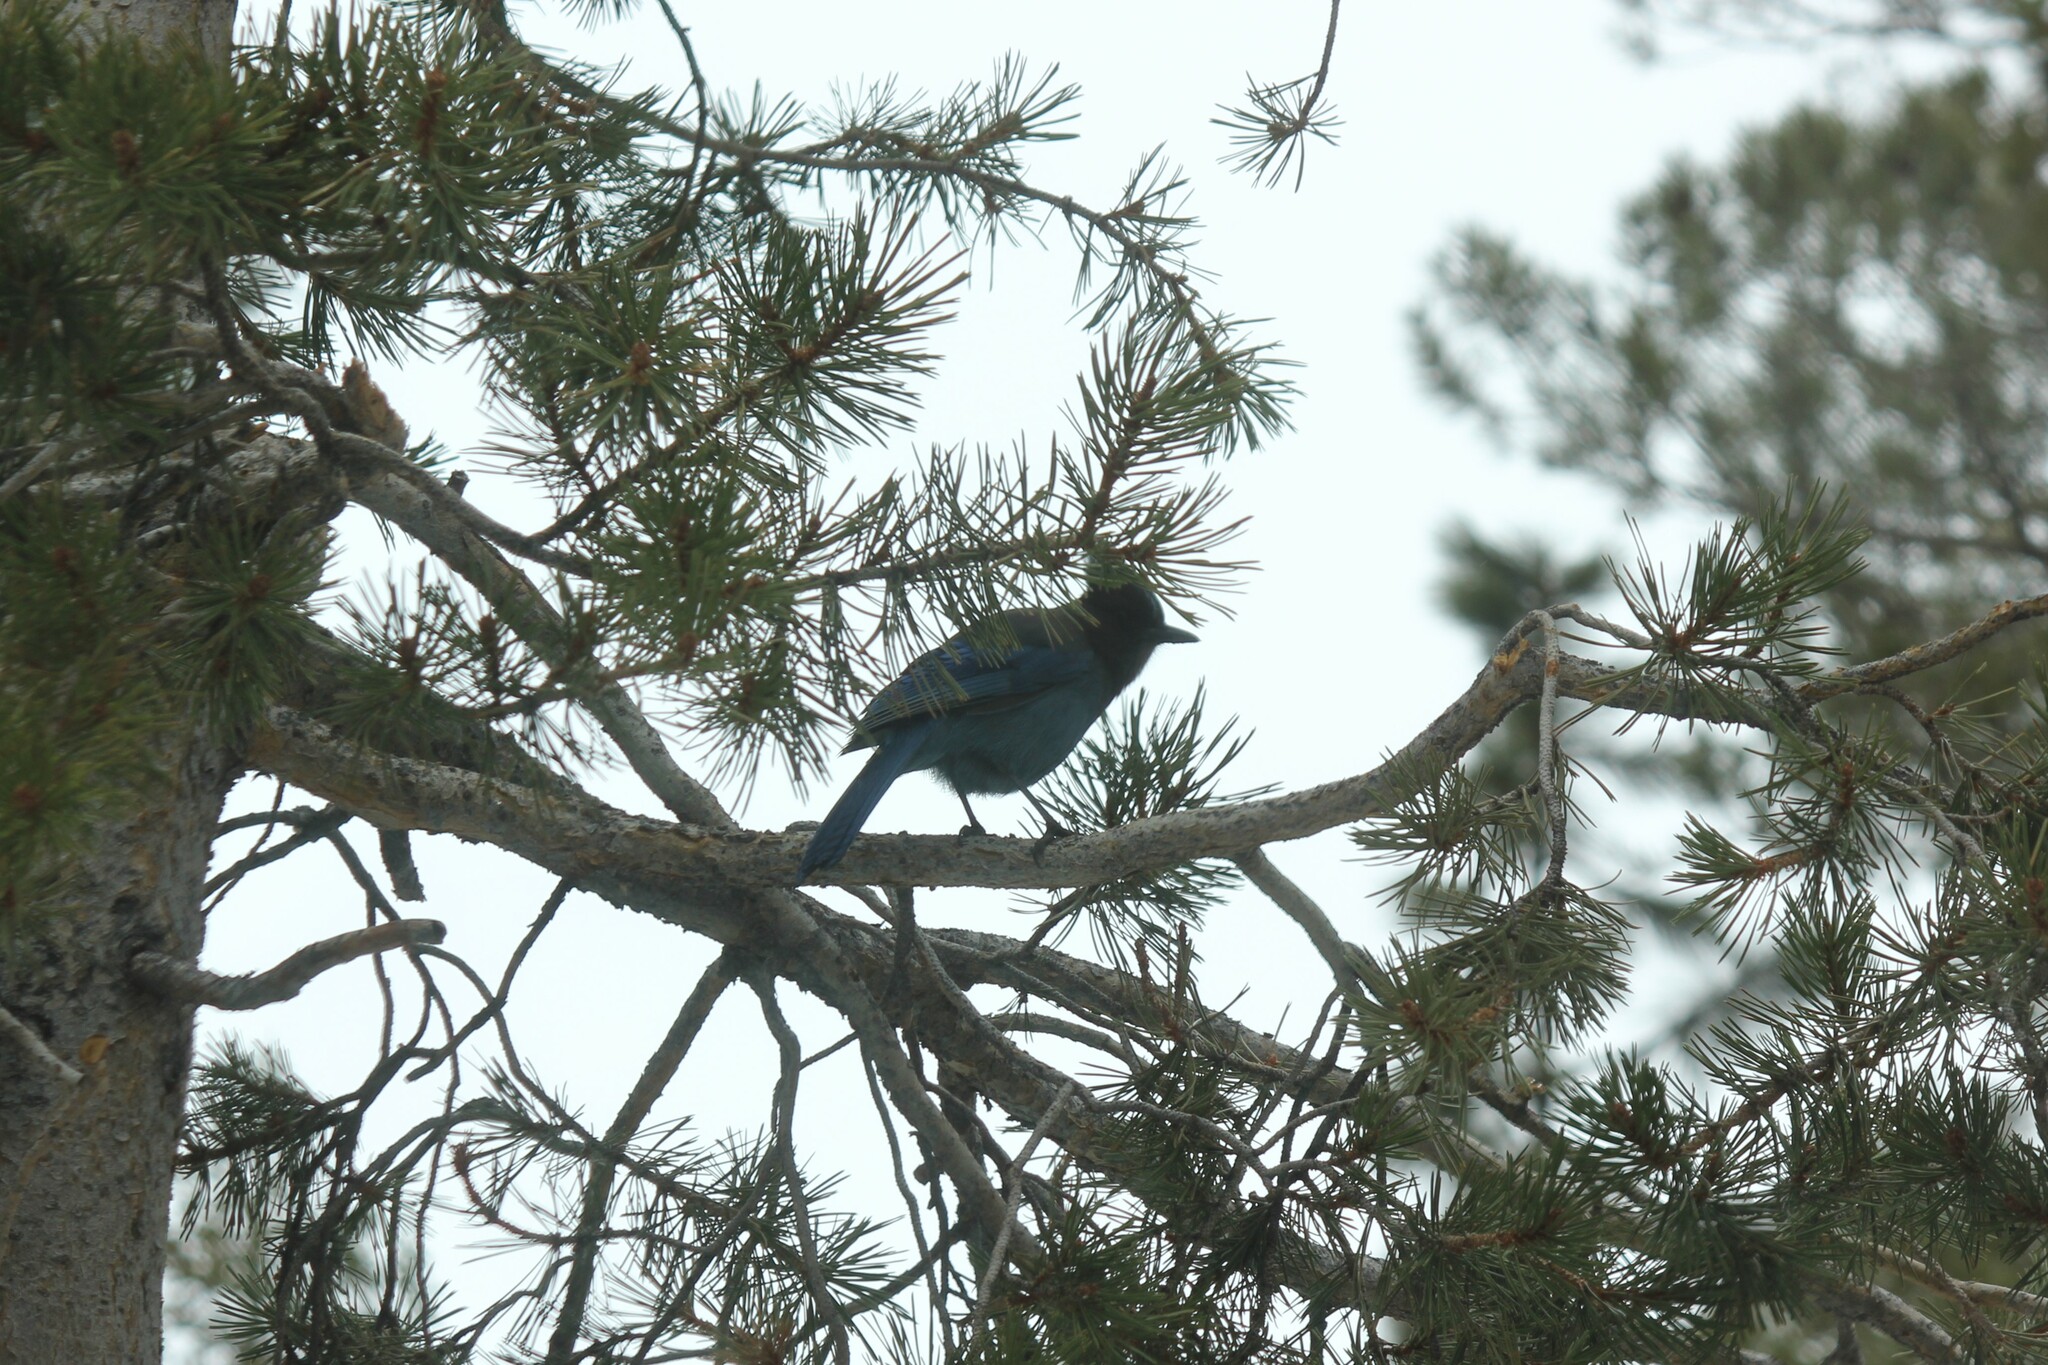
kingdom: Animalia
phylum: Chordata
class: Aves
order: Passeriformes
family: Corvidae
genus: Cyanocitta
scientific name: Cyanocitta stelleri
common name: Steller's jay
